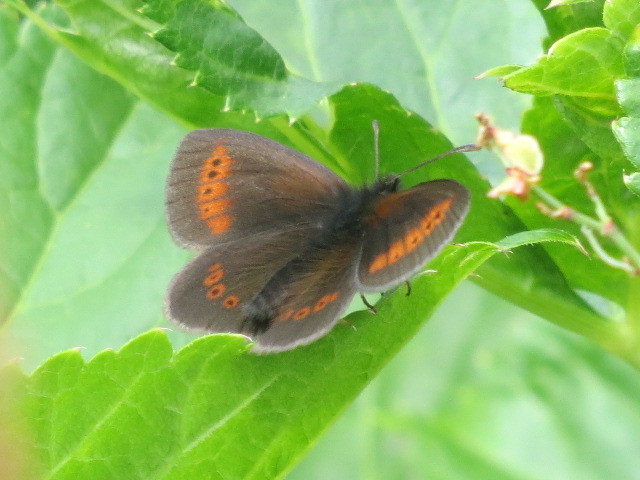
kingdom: Animalia
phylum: Arthropoda
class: Insecta
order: Lepidoptera
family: Nymphalidae
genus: Erebia
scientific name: Erebia melampus
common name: Lesser mountain ringlet
